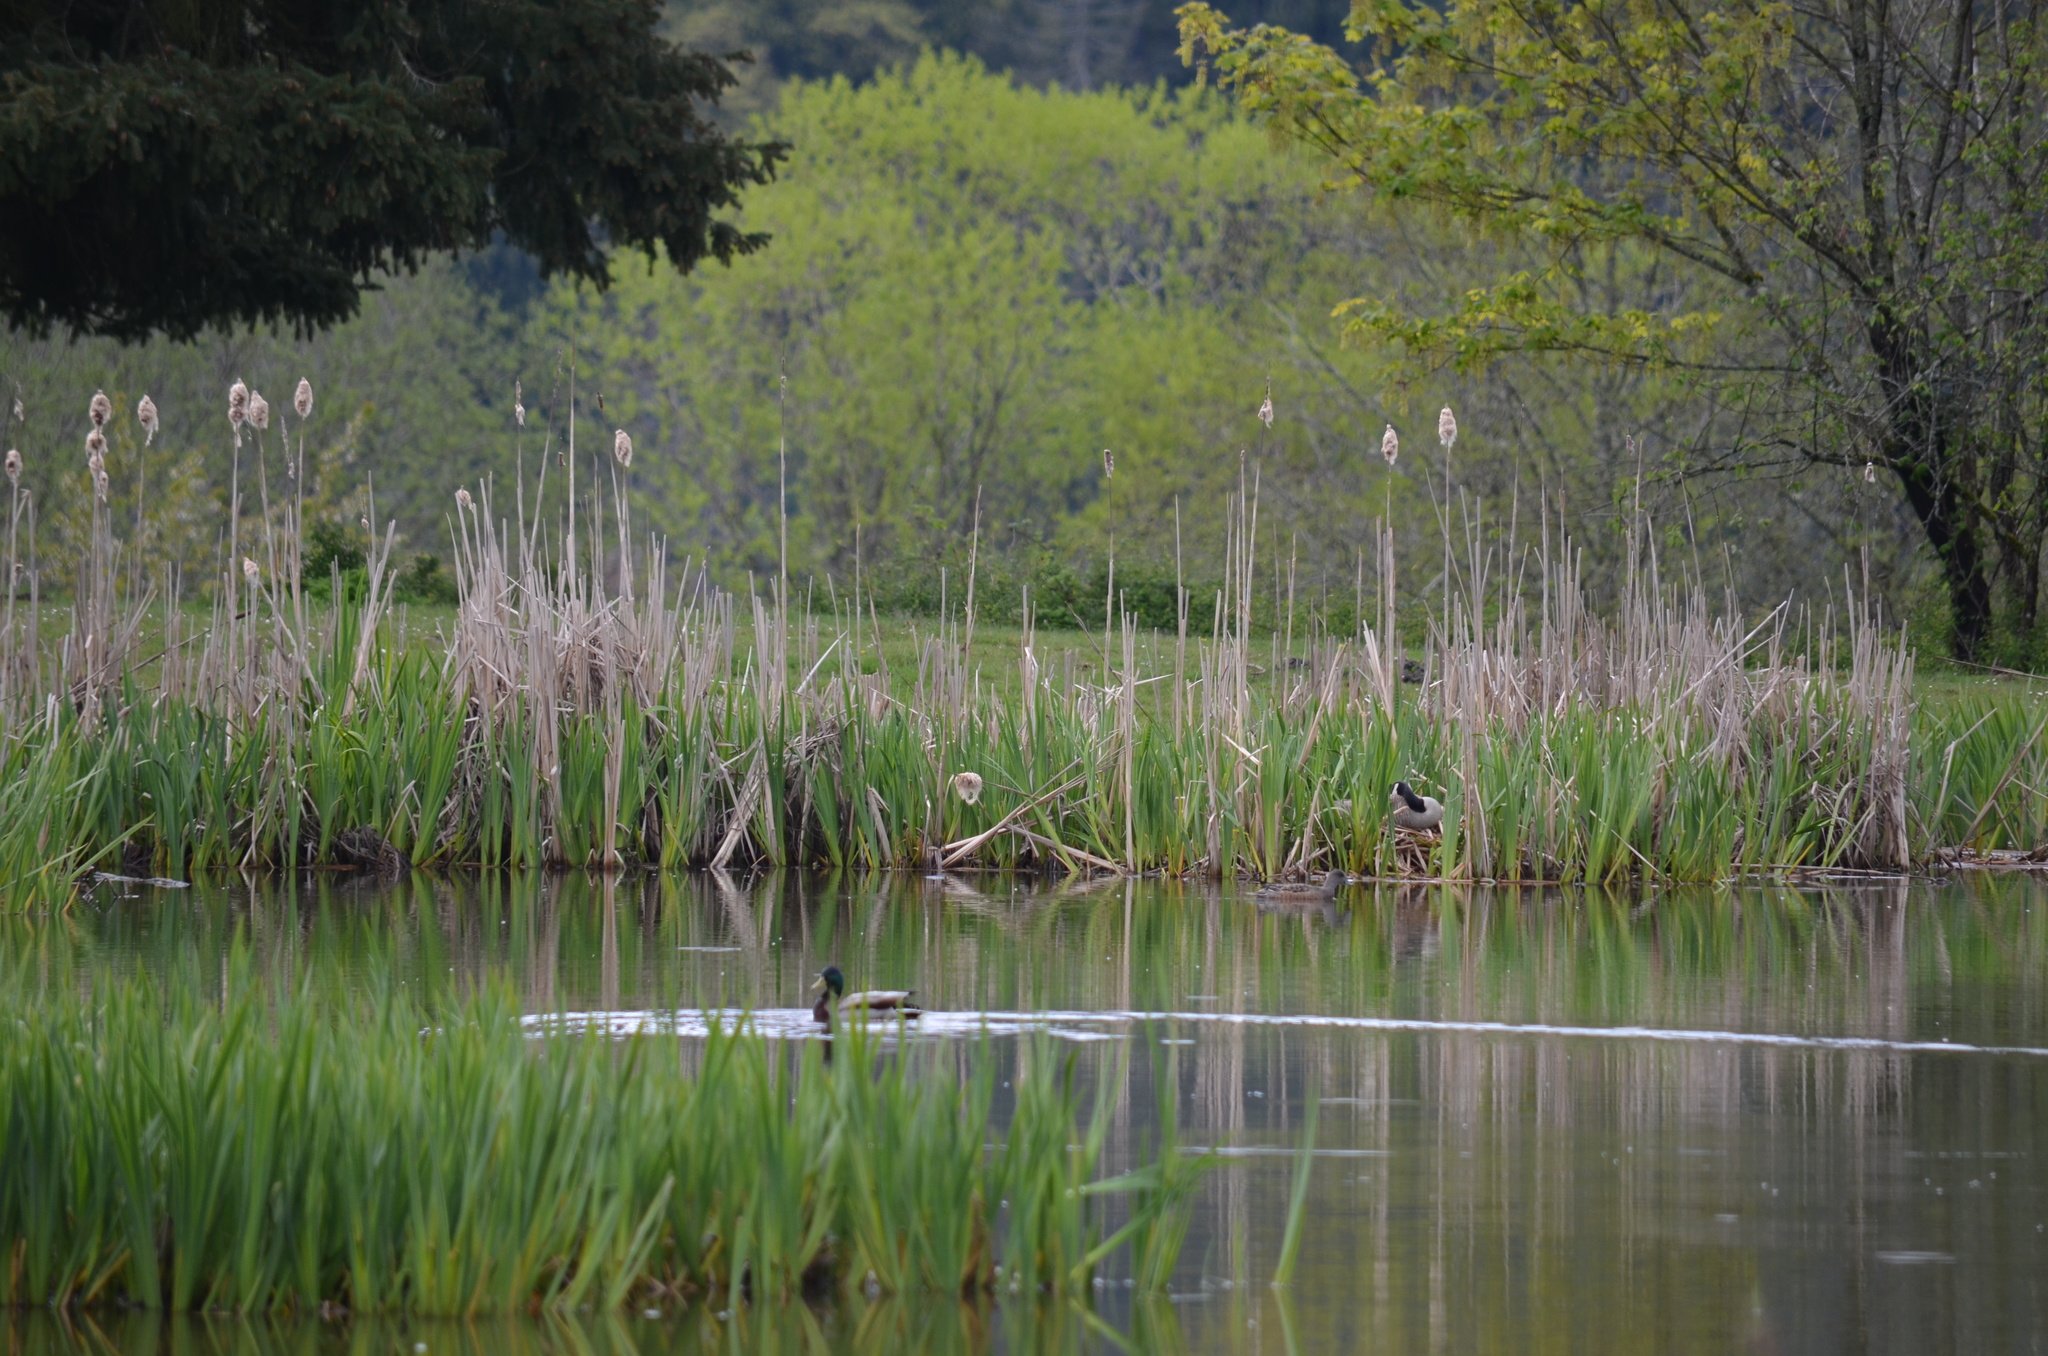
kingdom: Animalia
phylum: Chordata
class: Aves
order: Anseriformes
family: Anatidae
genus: Anas
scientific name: Anas platyrhynchos
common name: Mallard
